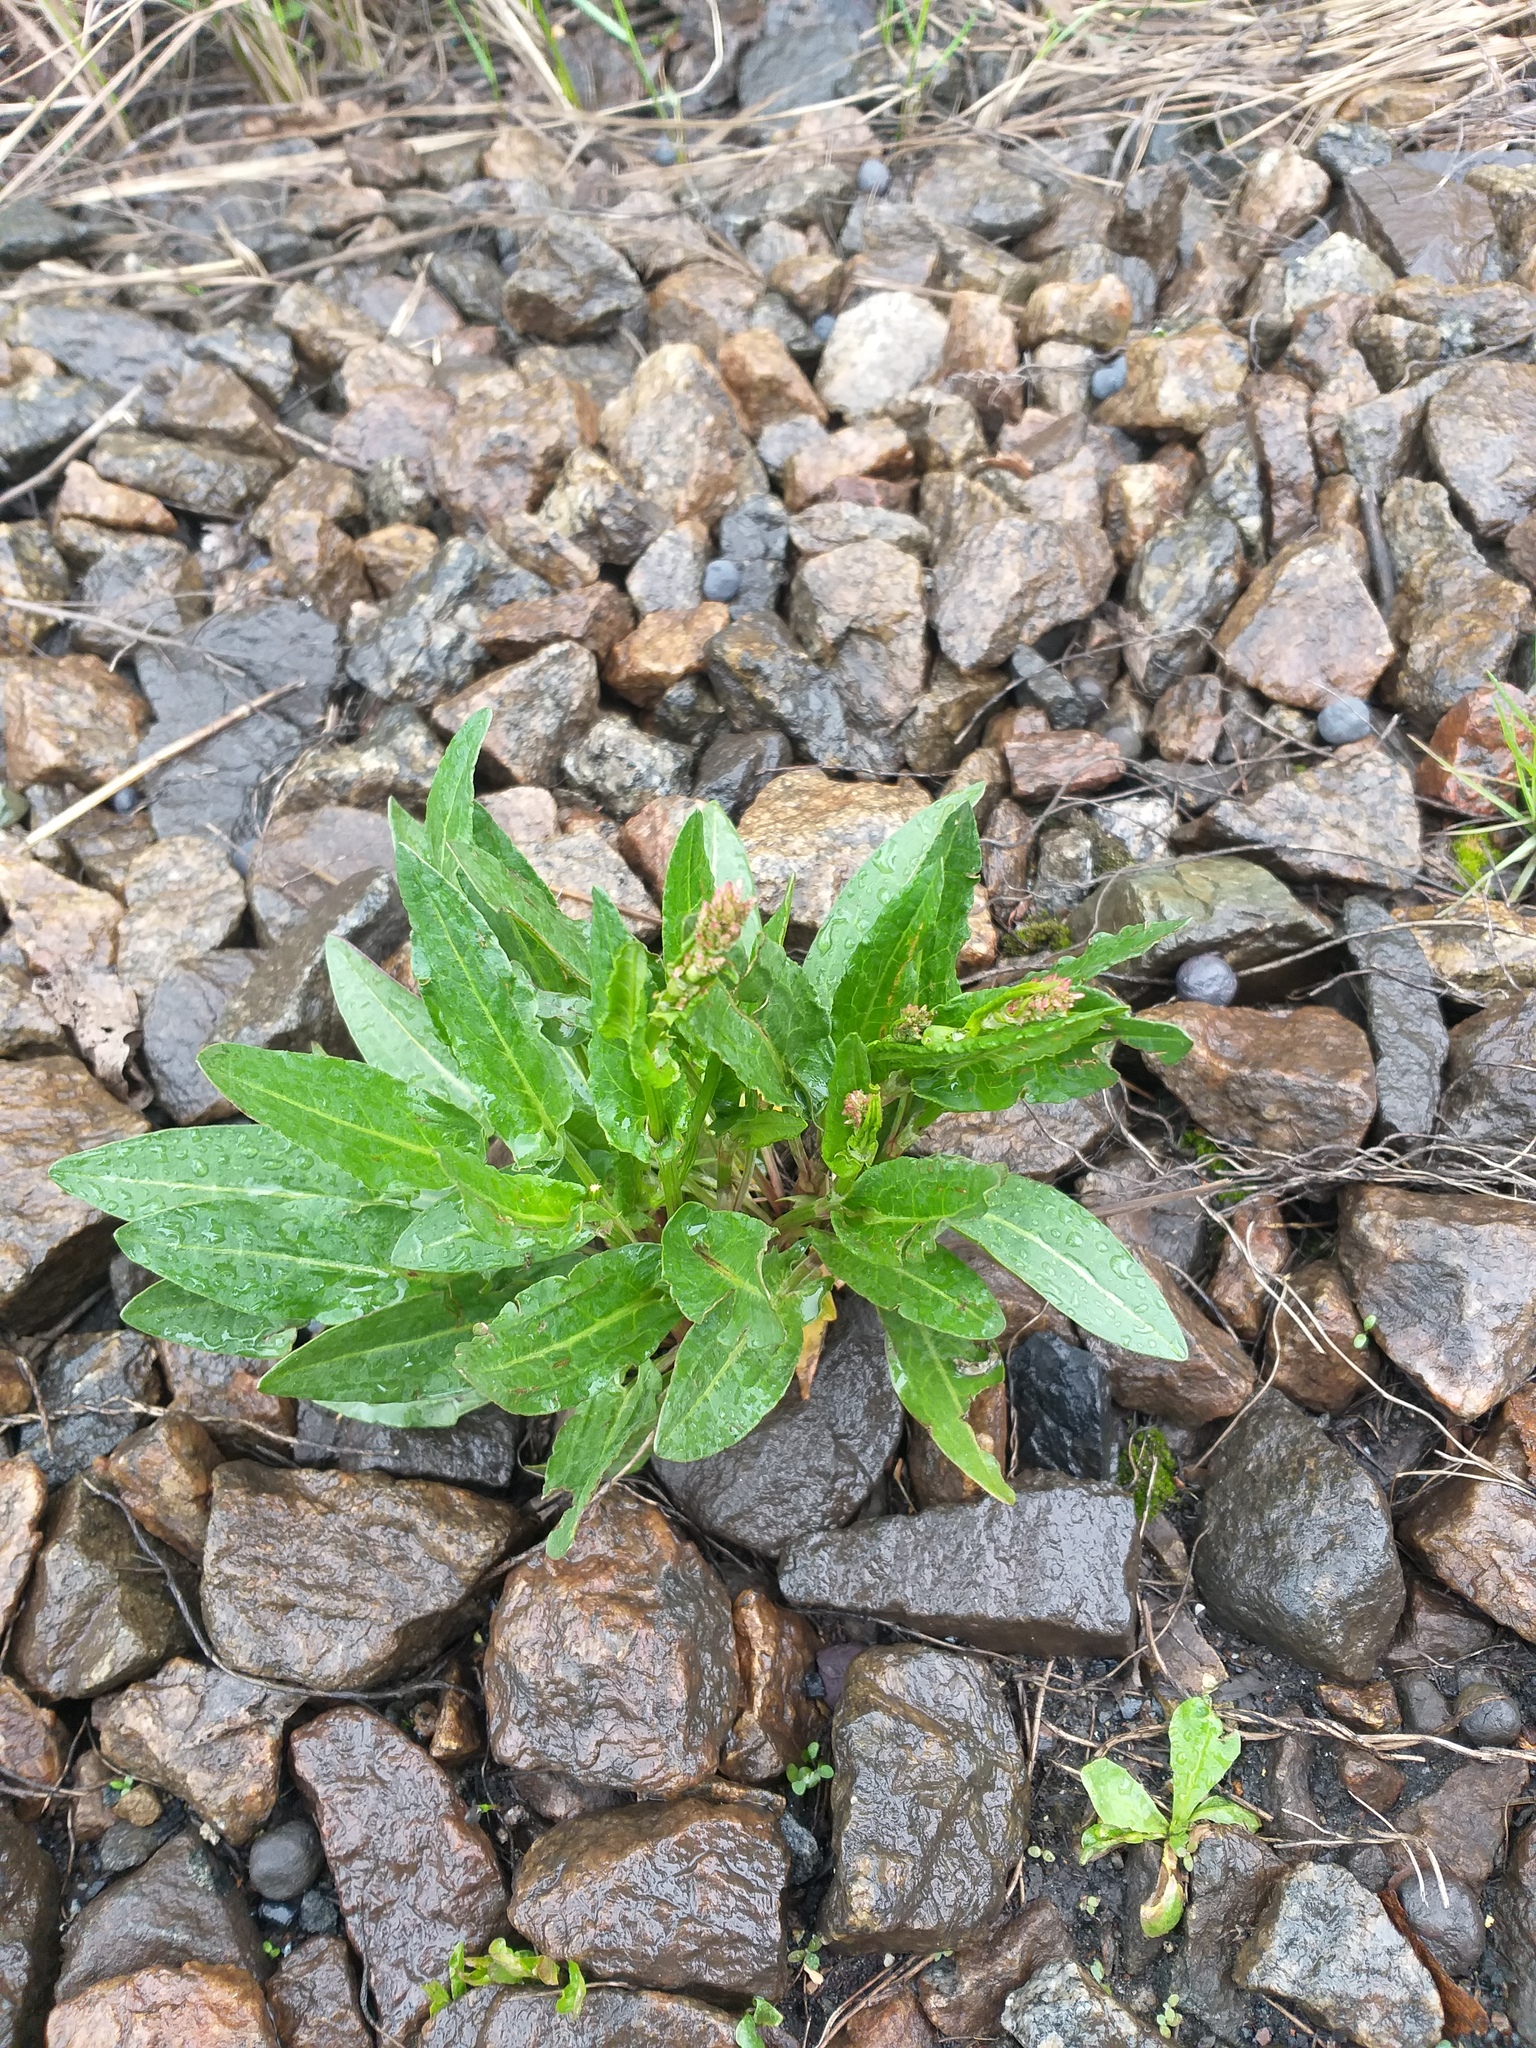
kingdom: Plantae
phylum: Tracheophyta
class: Magnoliopsida
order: Caryophyllales
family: Polygonaceae
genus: Rumex
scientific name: Rumex acetosa
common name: Garden sorrel
